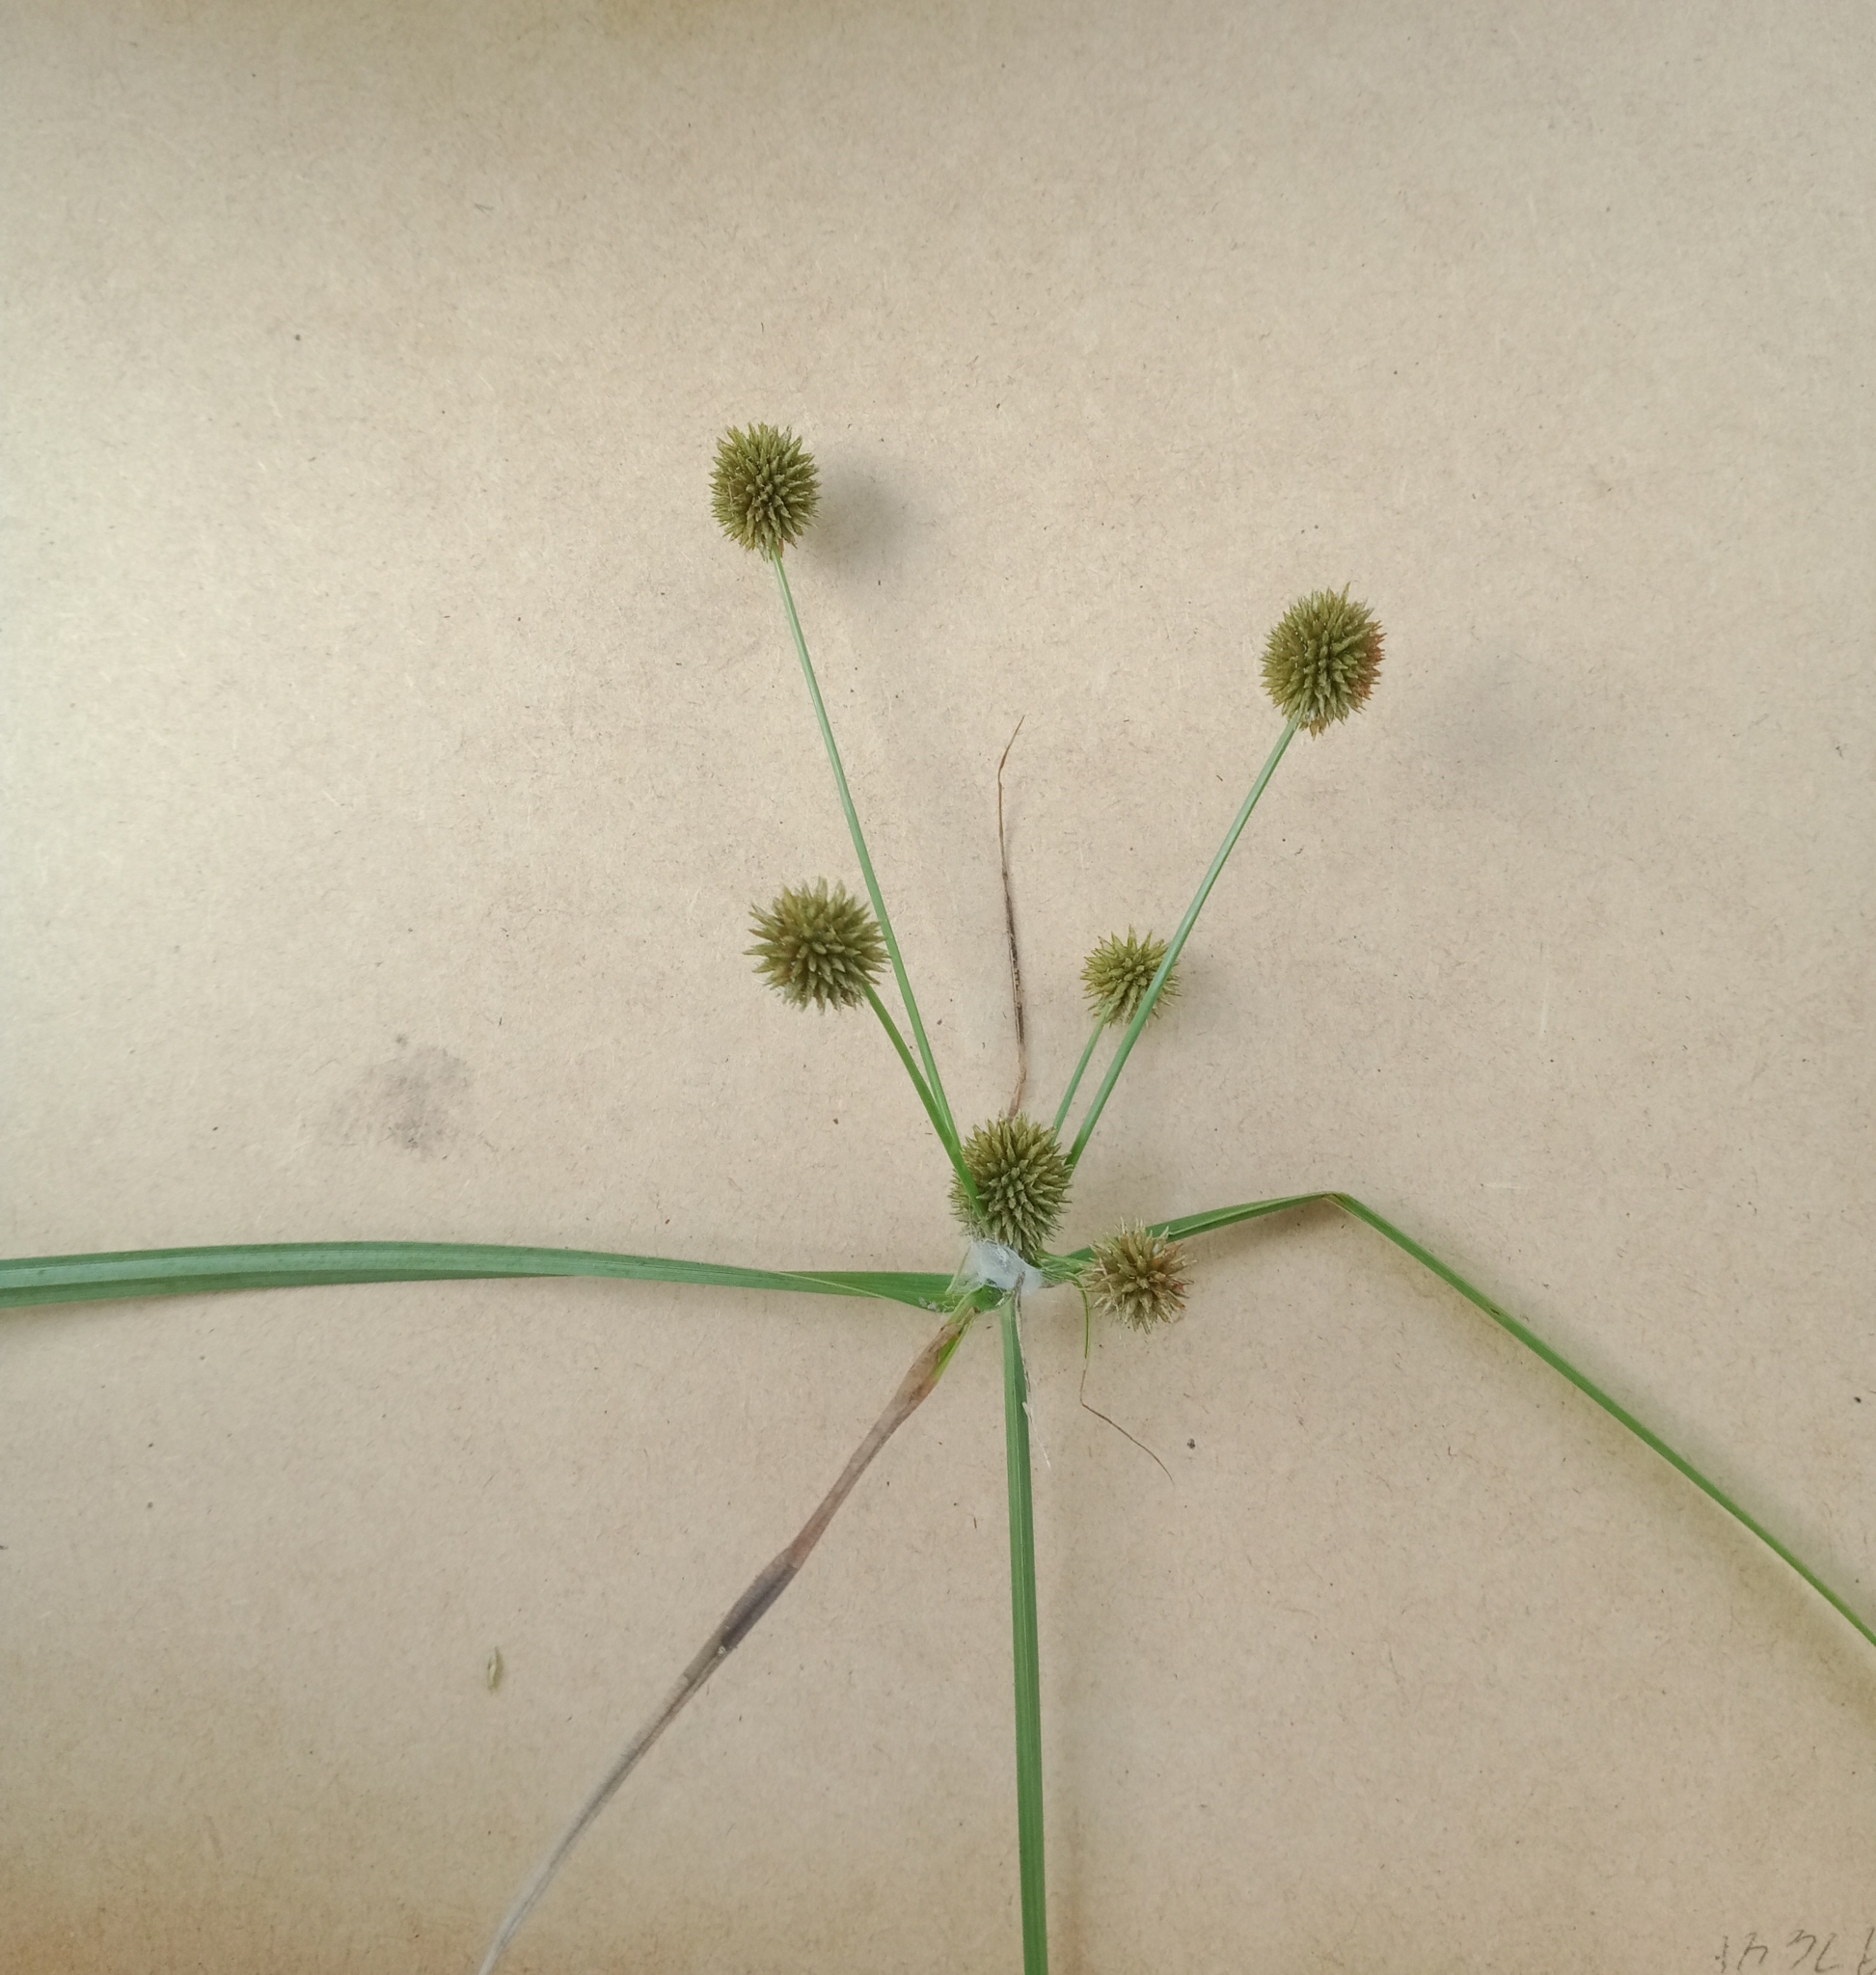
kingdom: Plantae
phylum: Tracheophyta
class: Liliopsida
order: Poales
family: Cyperaceae
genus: Cyperus
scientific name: Cyperus echinatus
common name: Teasel sedge
